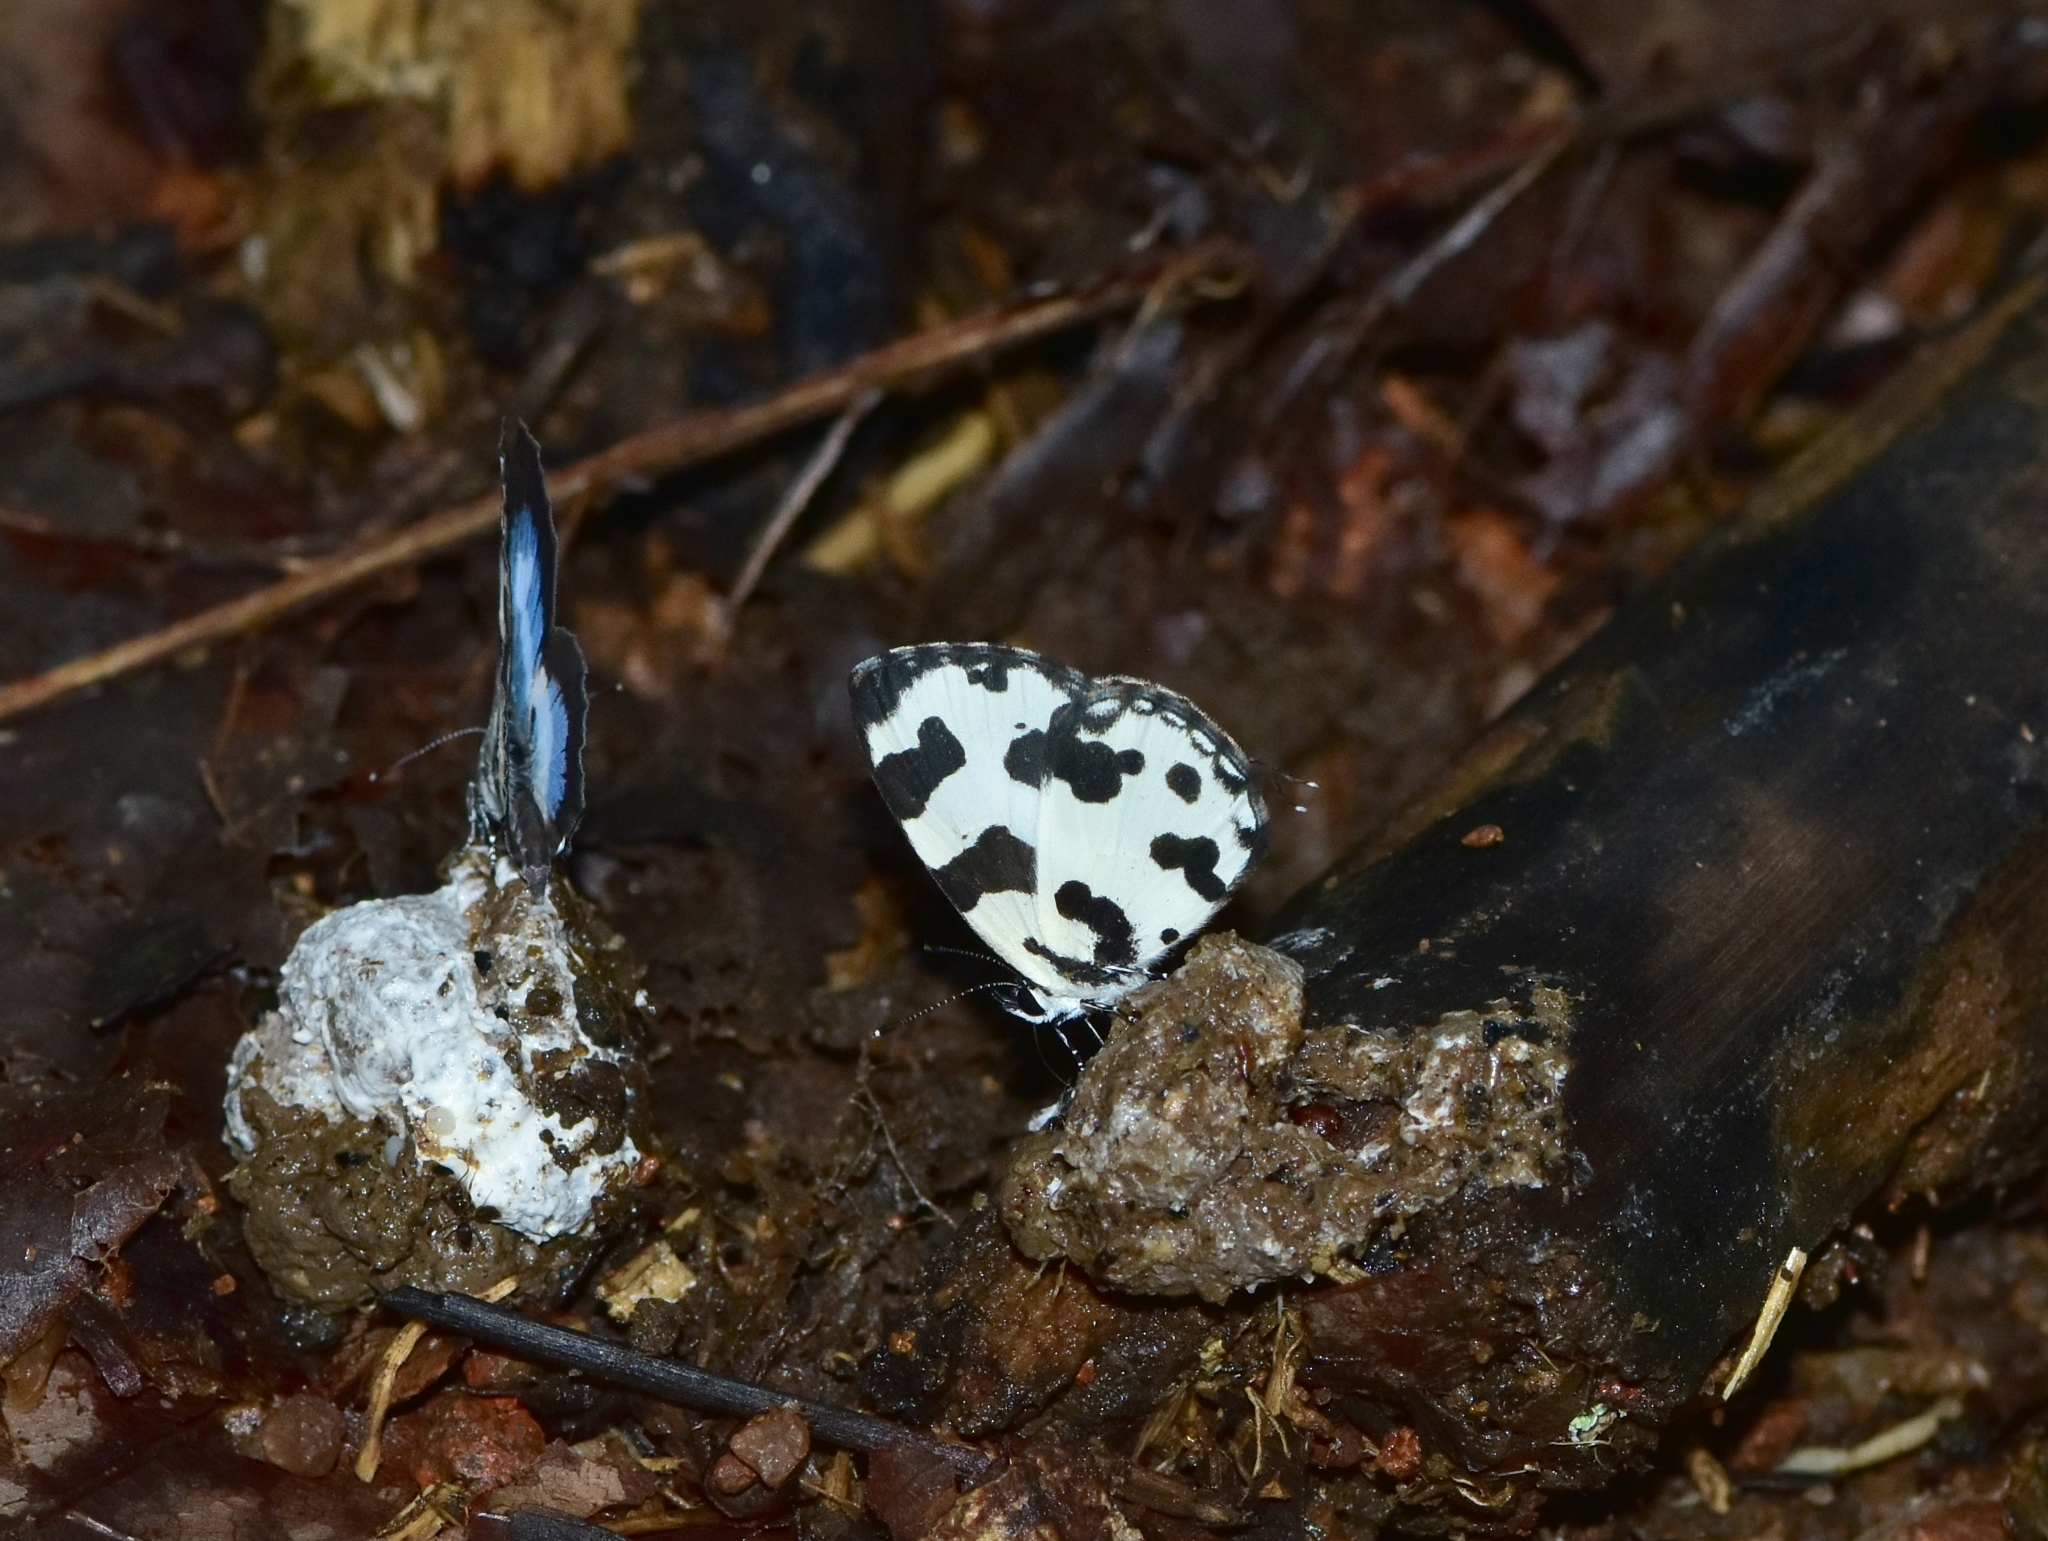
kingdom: Animalia
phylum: Arthropoda
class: Insecta
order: Lepidoptera
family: Lycaenidae
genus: Caleta
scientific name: Caleta decidia
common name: Angled pierrot
